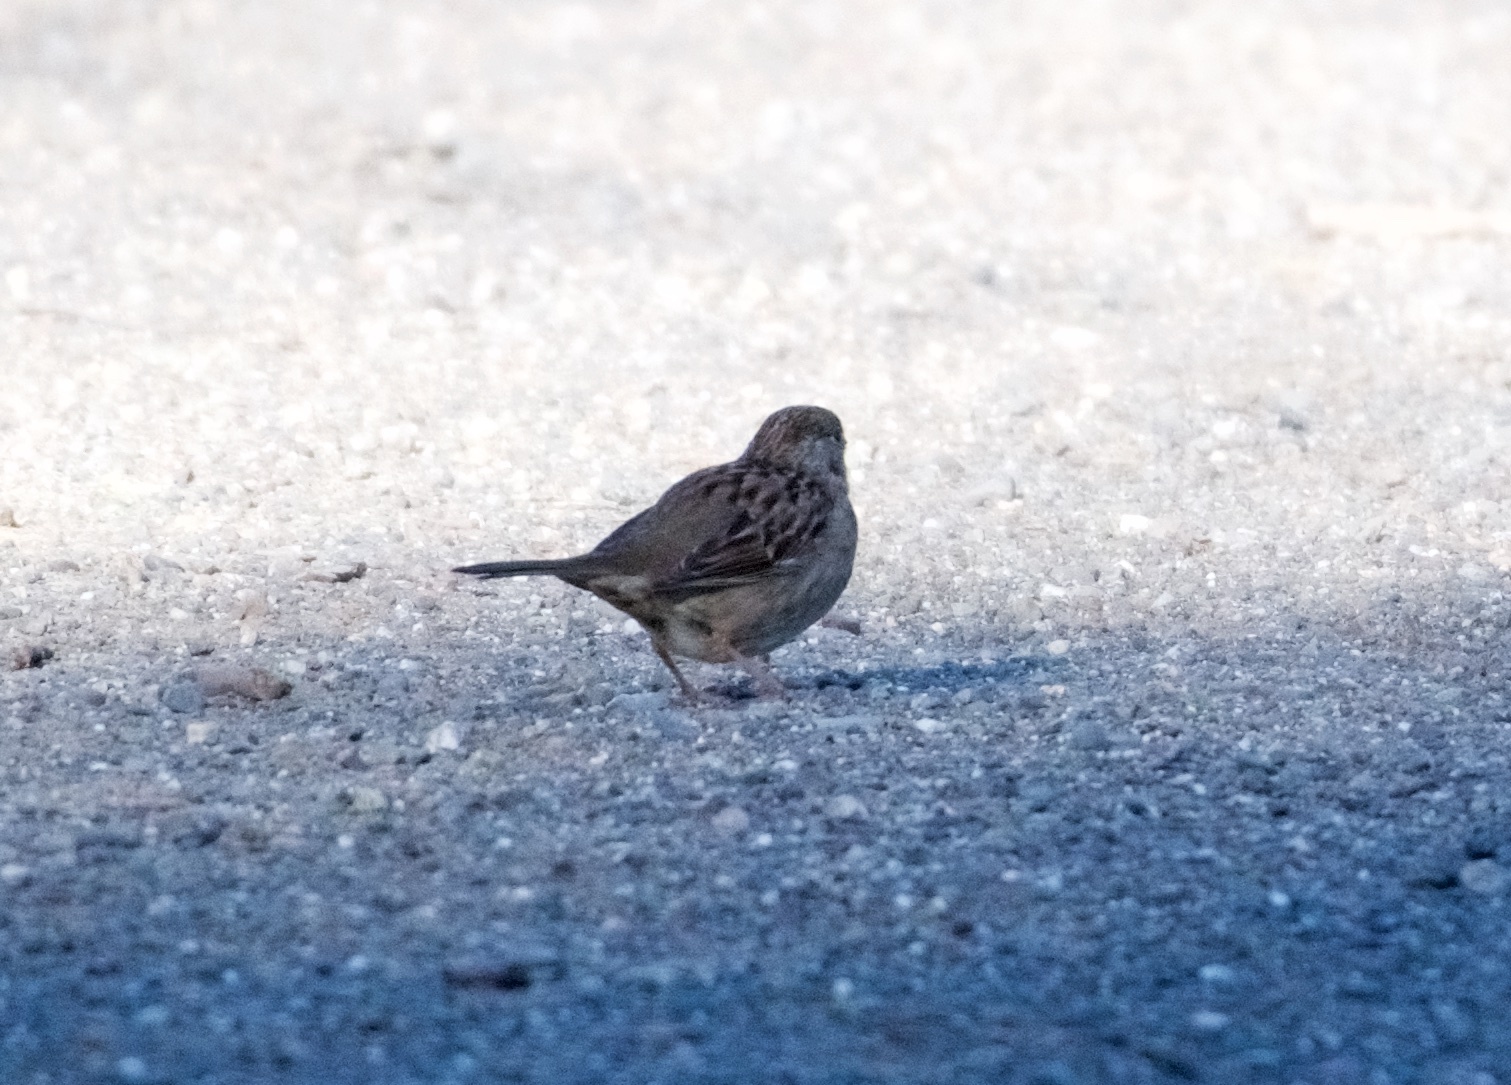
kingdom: Animalia
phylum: Chordata
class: Aves
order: Passeriformes
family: Passerellidae
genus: Zonotrichia
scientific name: Zonotrichia atricapilla
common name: Golden-crowned sparrow
